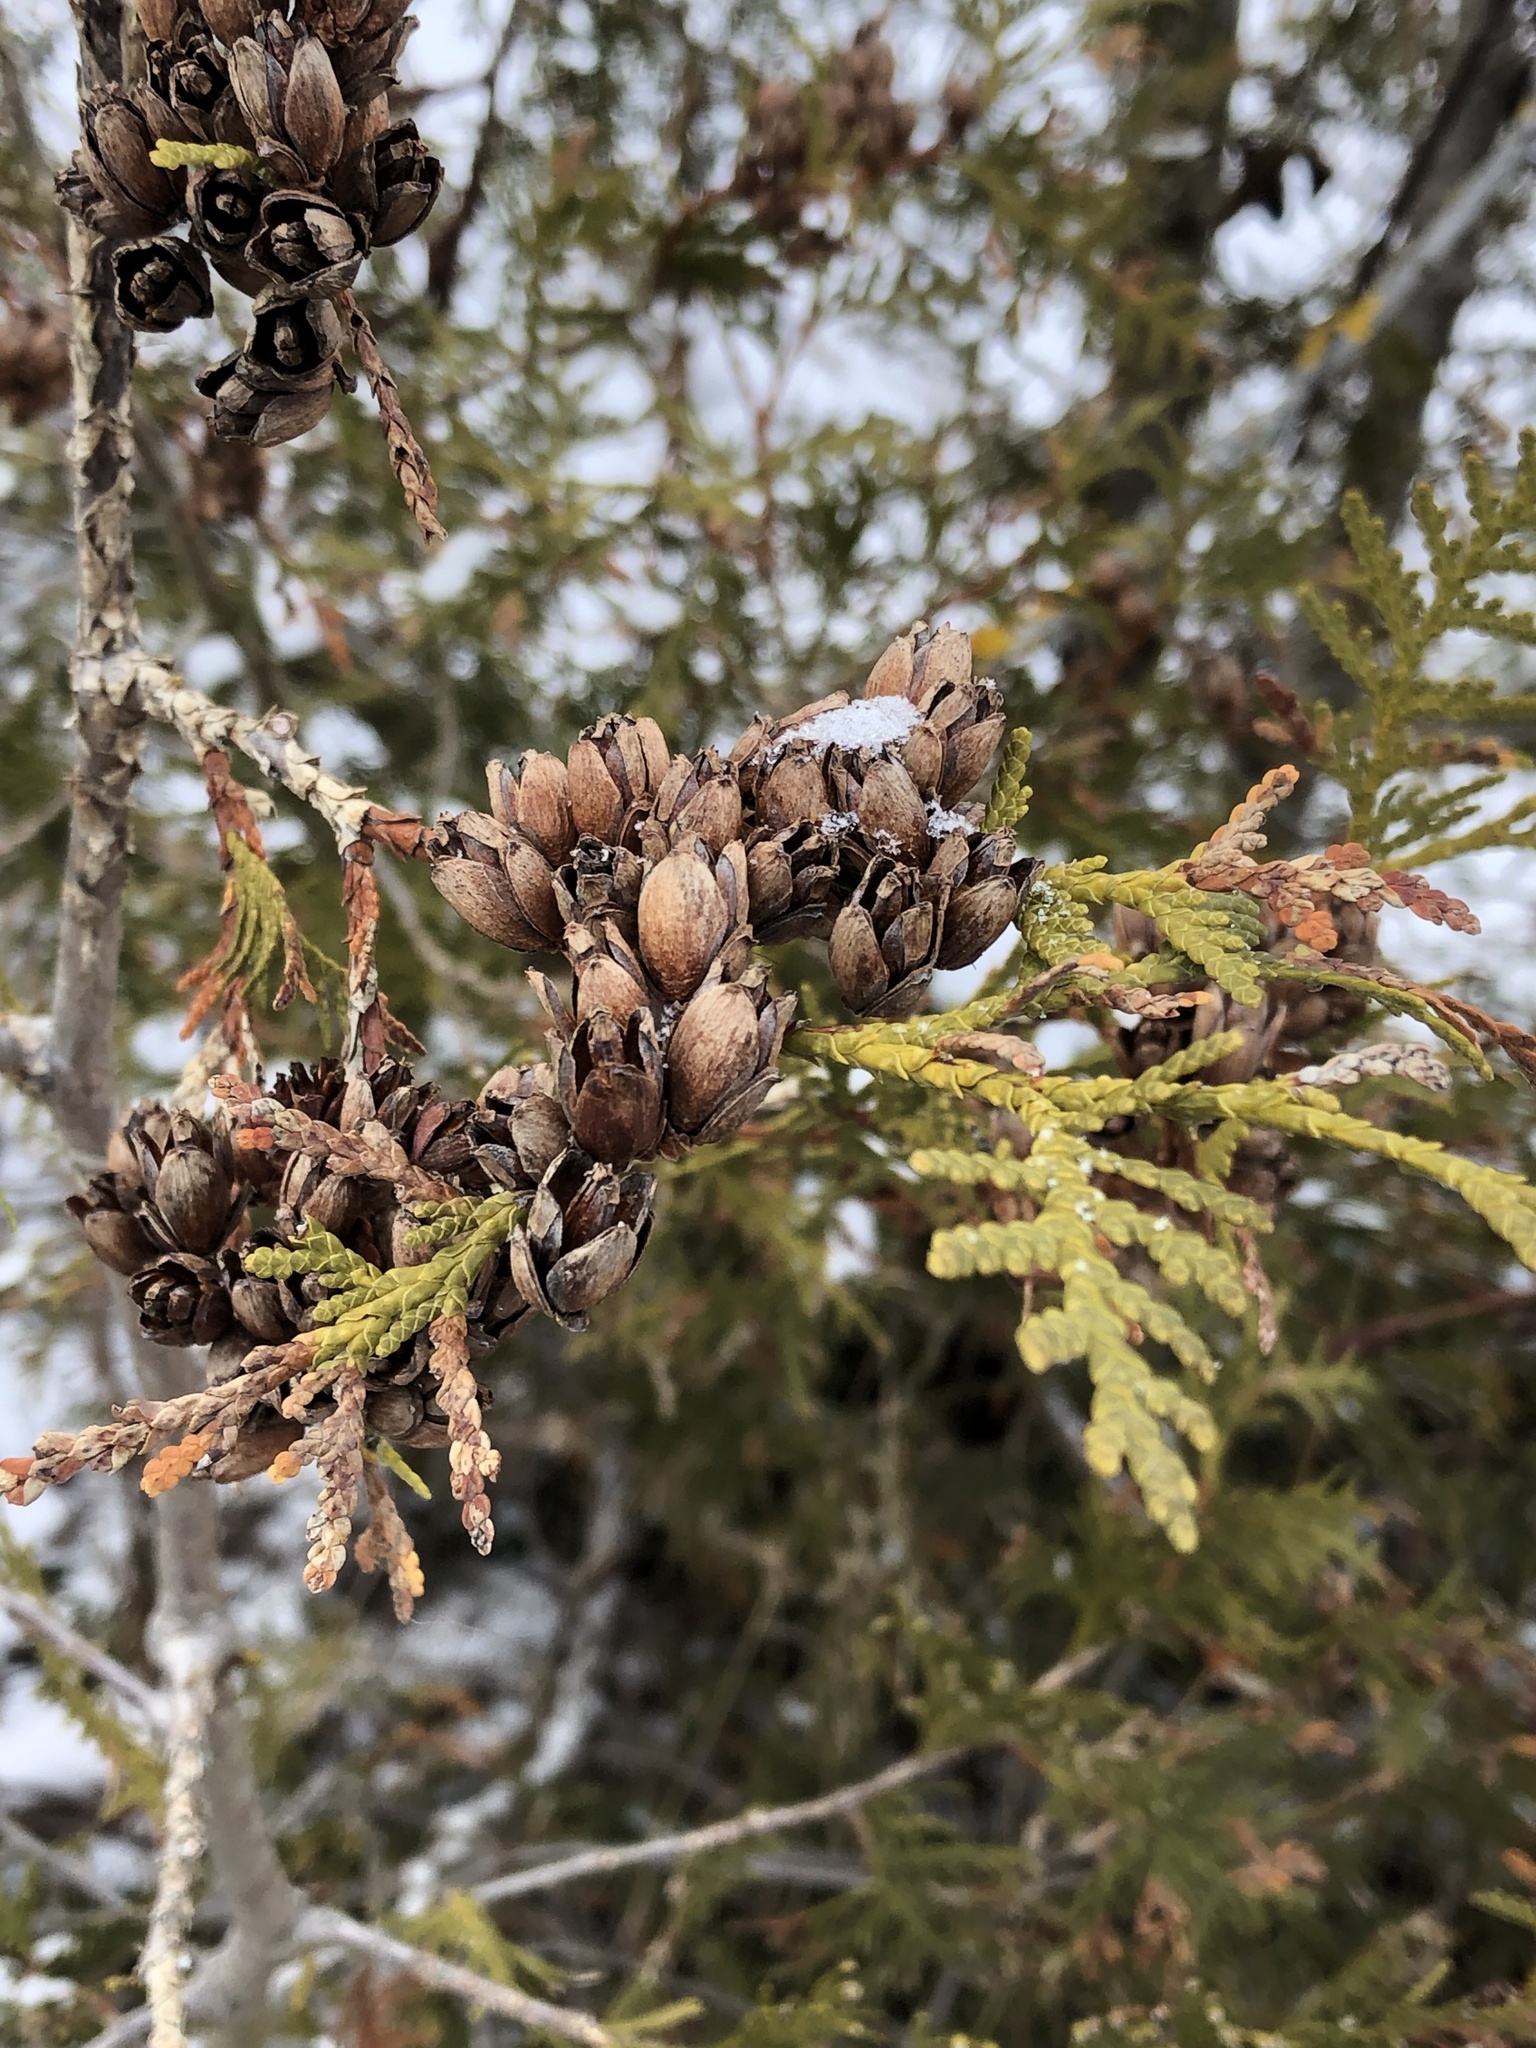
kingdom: Plantae
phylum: Tracheophyta
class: Pinopsida
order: Pinales
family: Cupressaceae
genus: Thuja
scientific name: Thuja occidentalis
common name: Northern white-cedar
